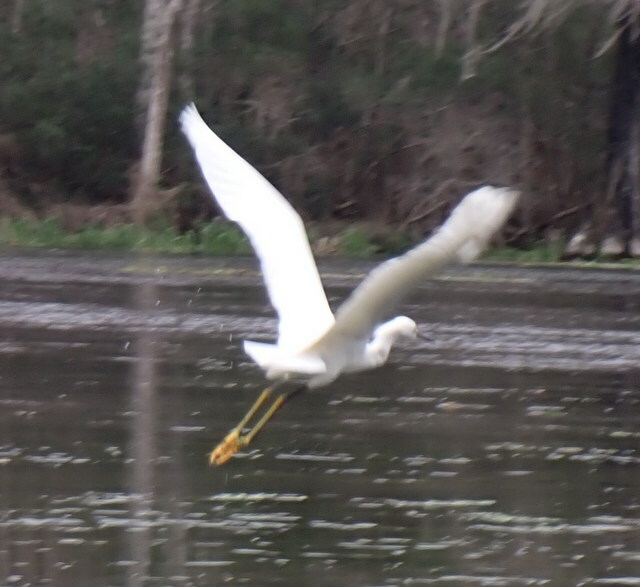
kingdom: Animalia
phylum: Chordata
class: Aves
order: Pelecaniformes
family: Ardeidae
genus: Egretta
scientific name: Egretta thula
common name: Snowy egret
